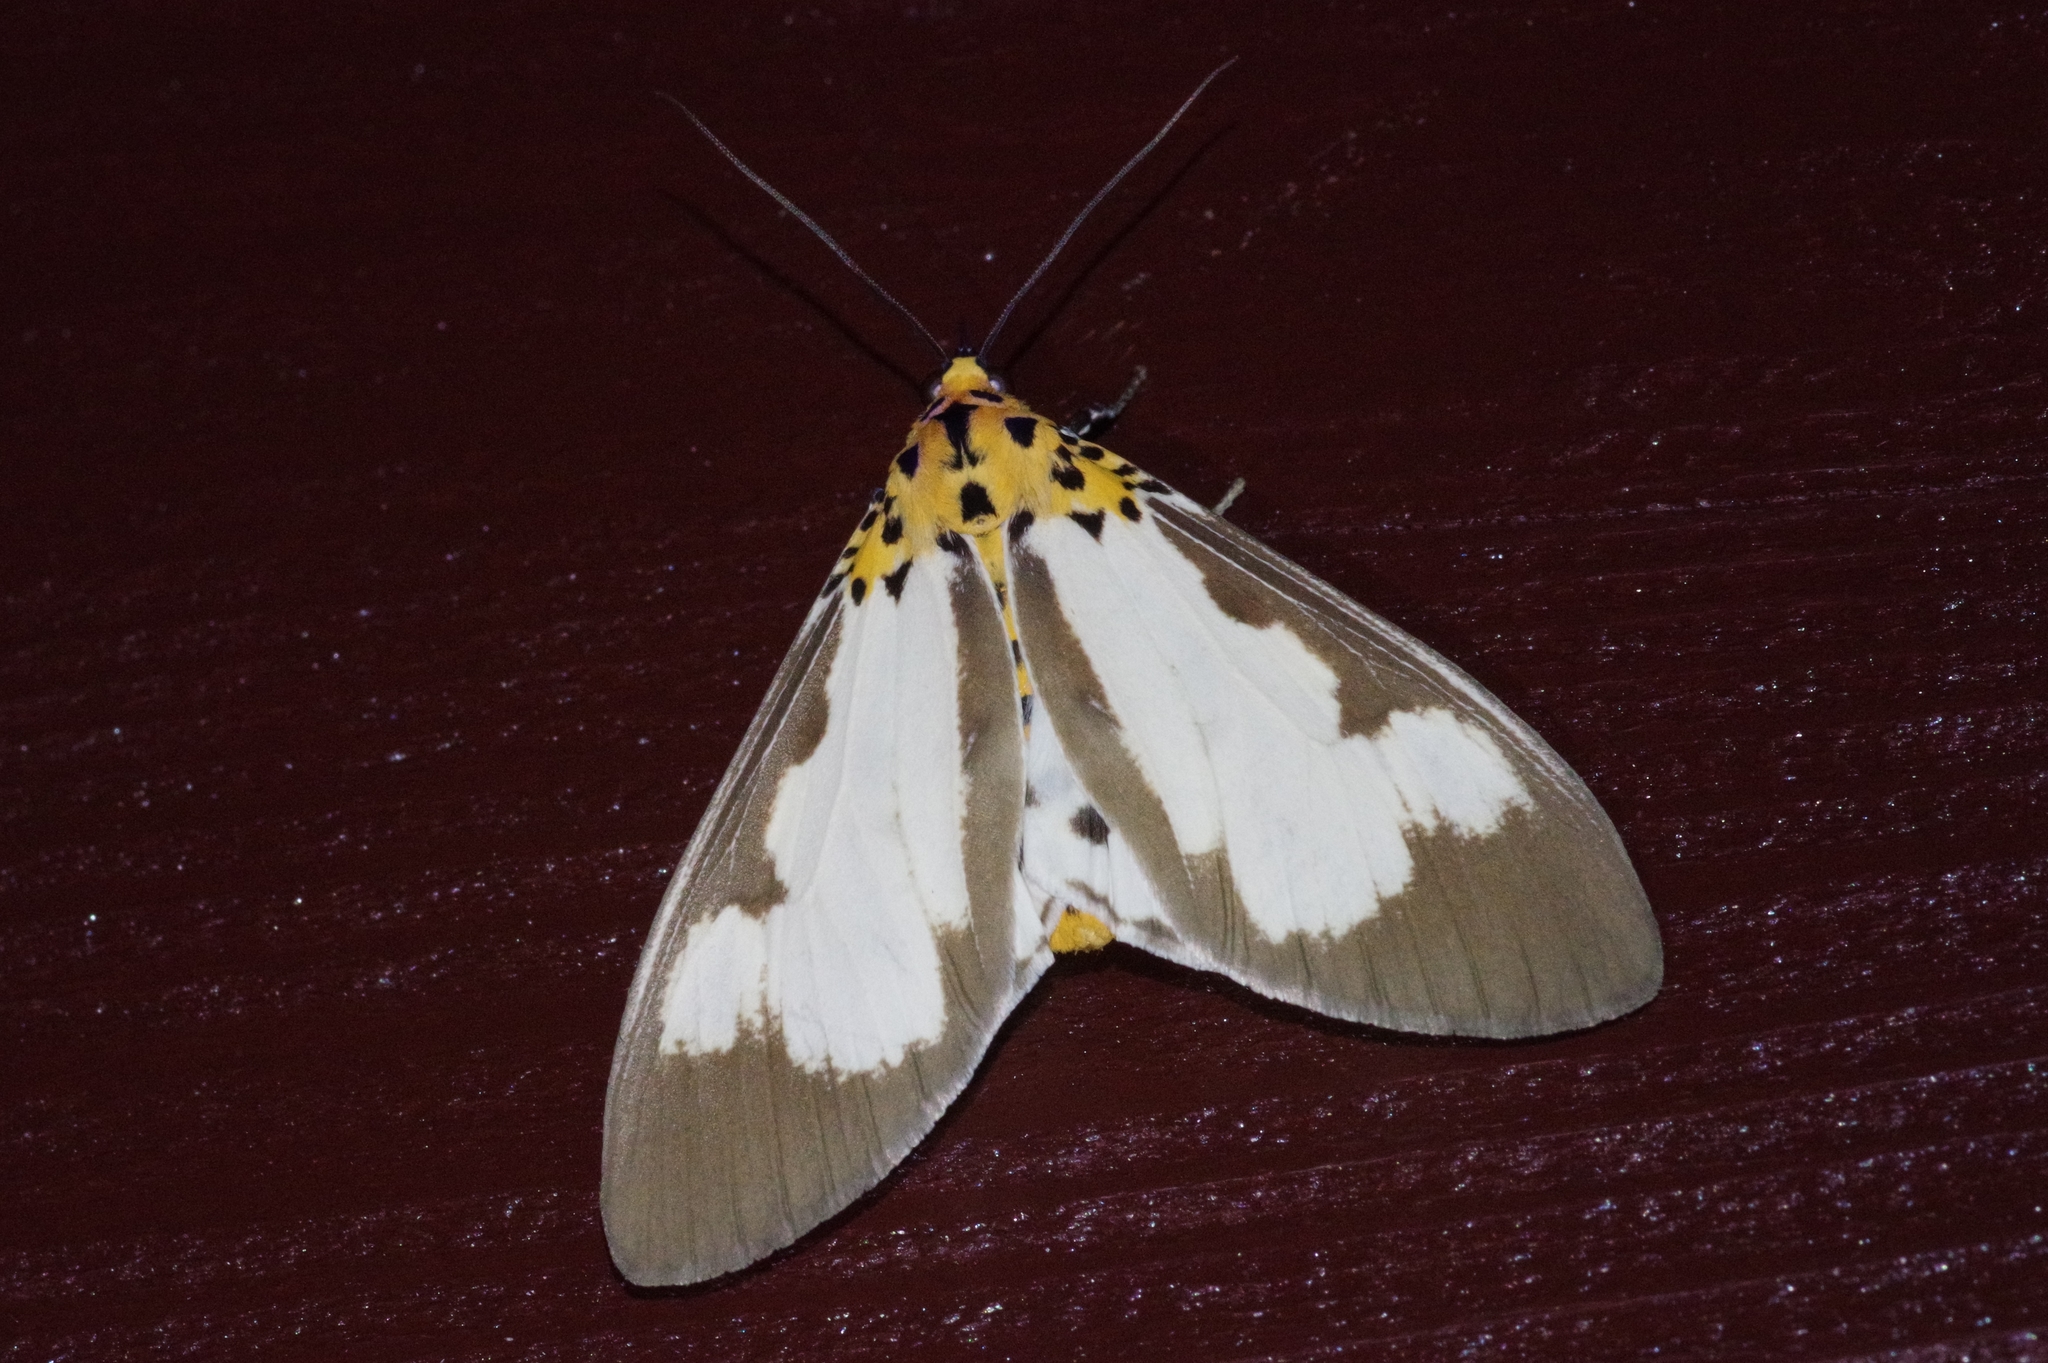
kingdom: Animalia
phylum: Arthropoda
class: Insecta
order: Lepidoptera
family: Erebidae
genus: Asota
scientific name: Asota plana
